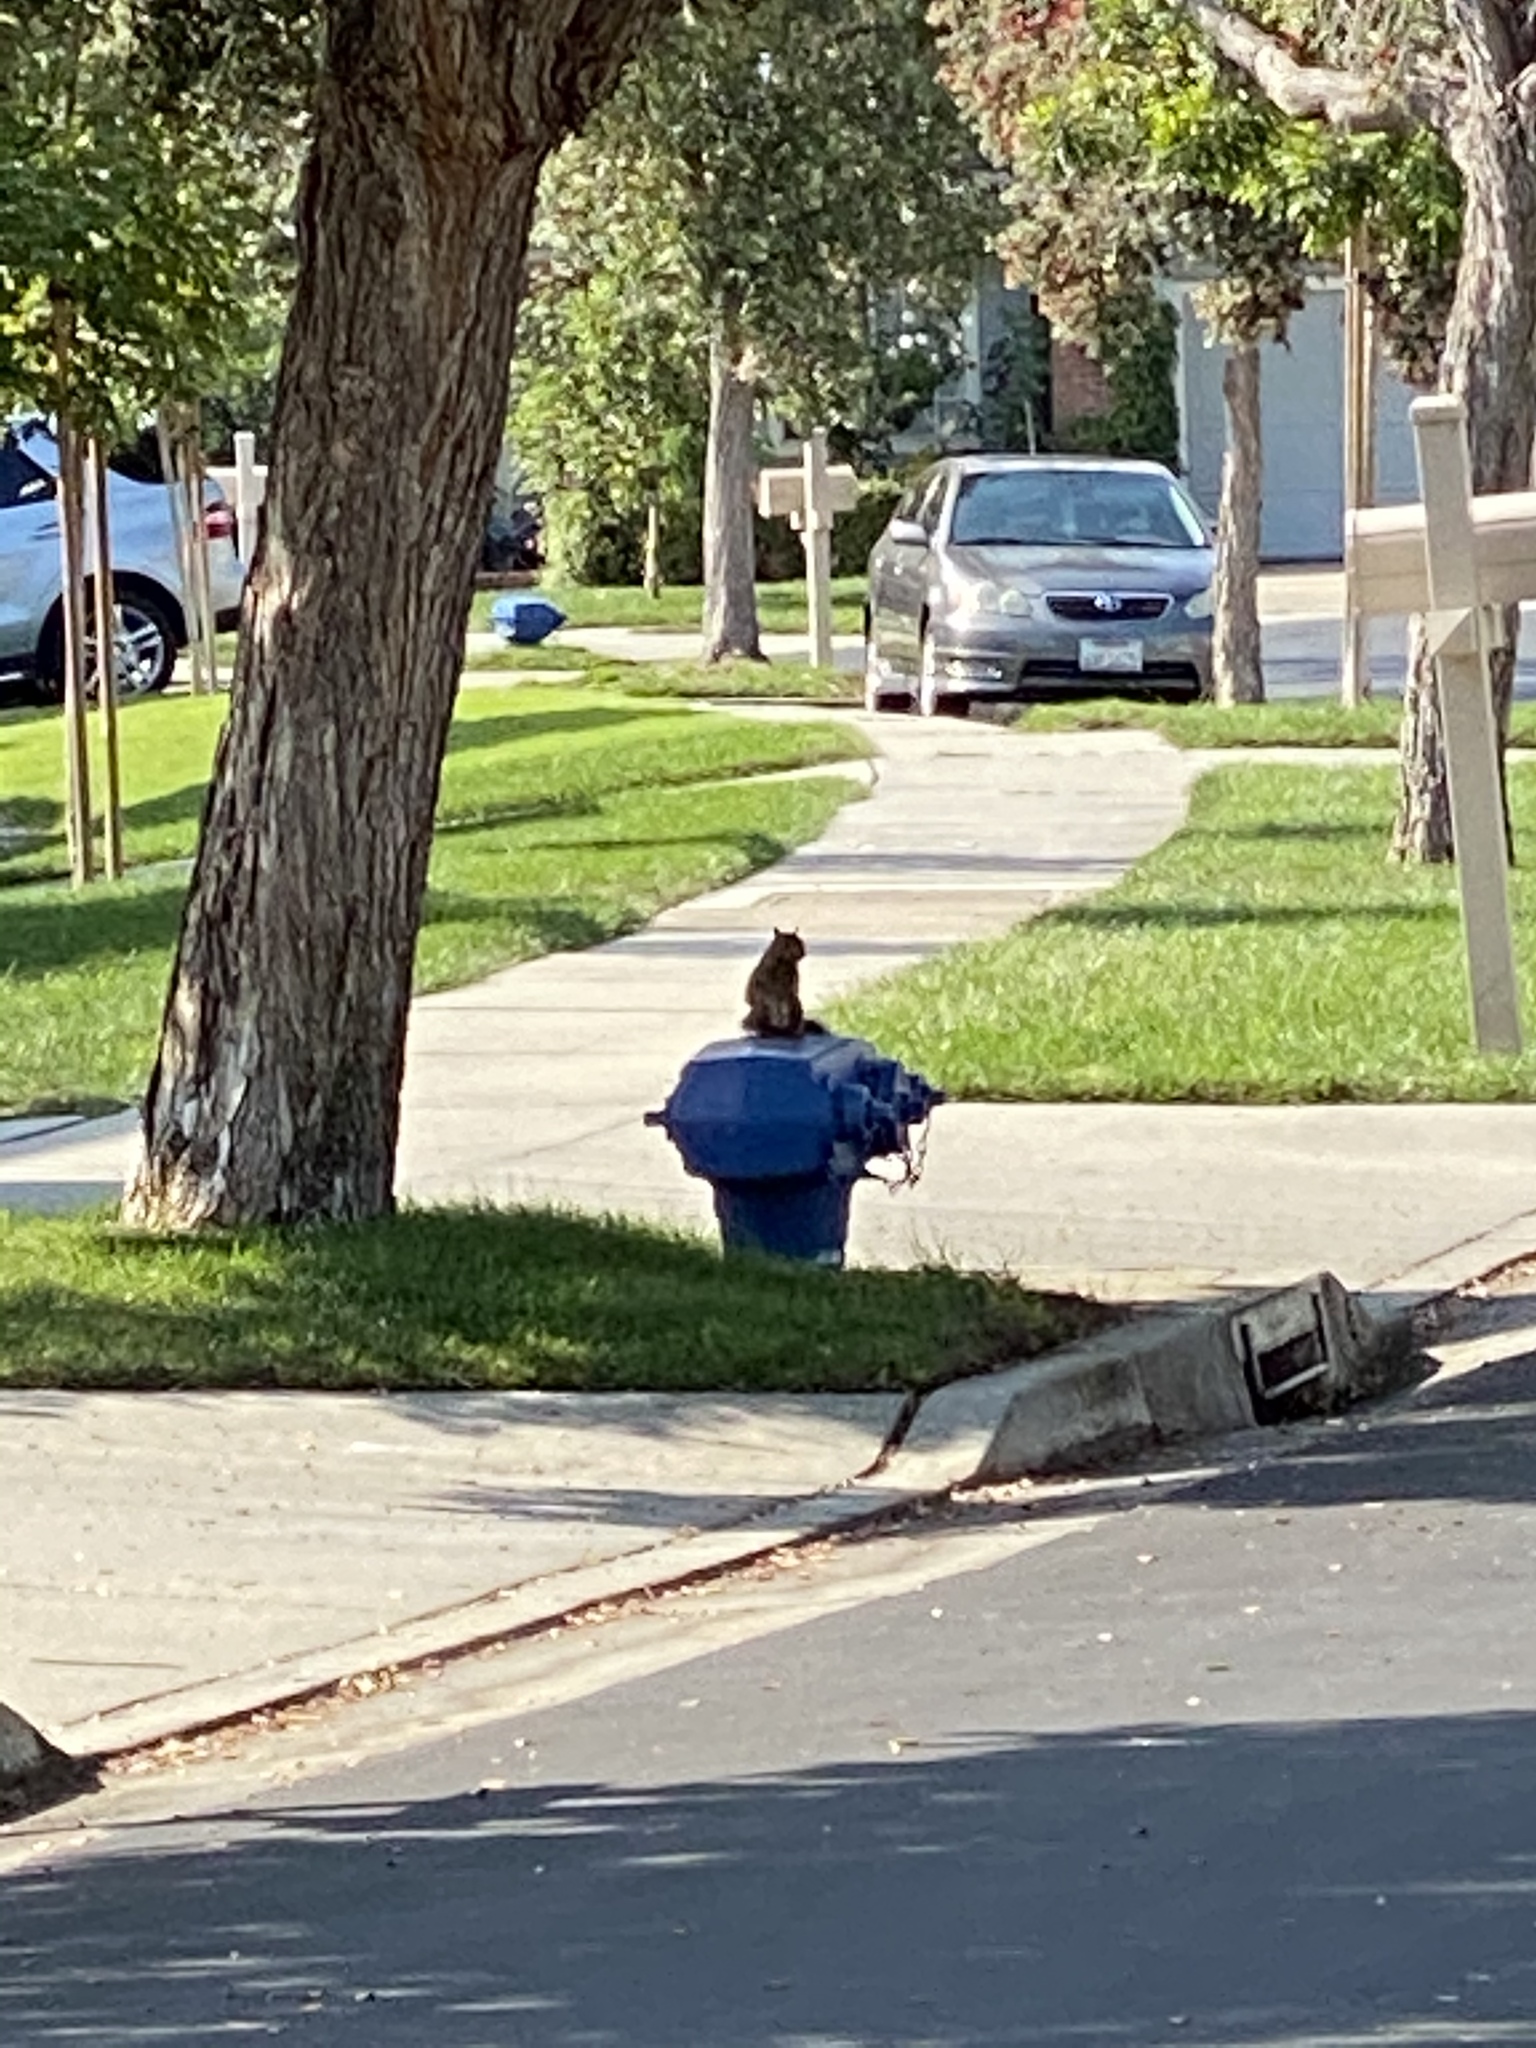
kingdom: Animalia
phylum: Chordata
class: Mammalia
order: Rodentia
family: Sciuridae
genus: Sciurus
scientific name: Sciurus carolinensis
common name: Eastern gray squirrel
